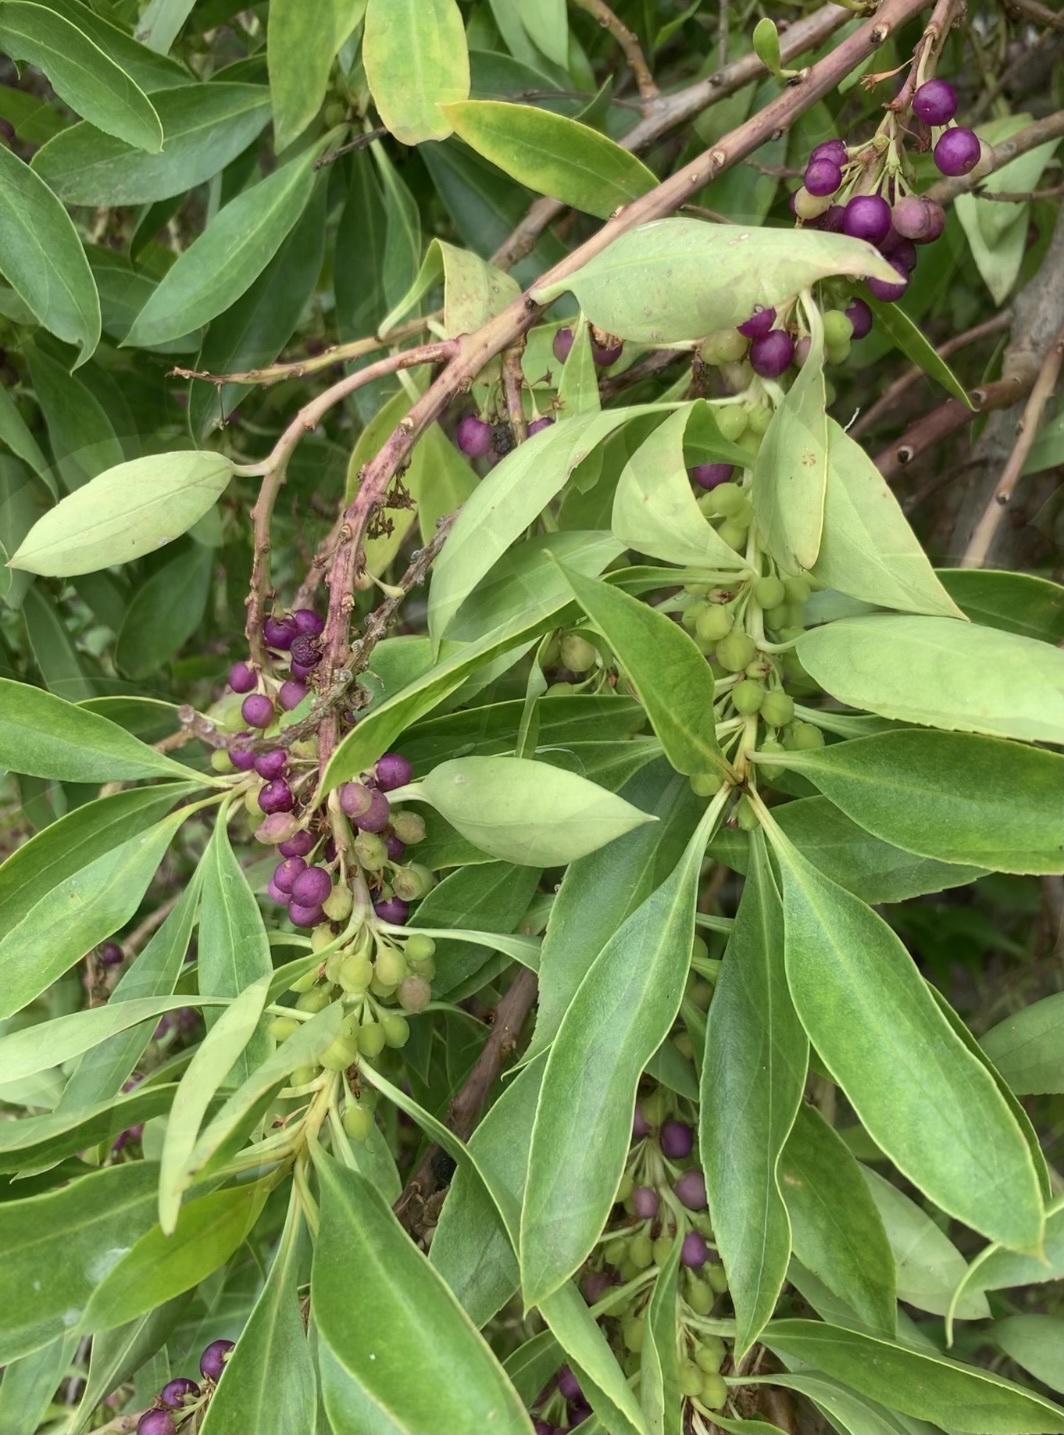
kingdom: Plantae
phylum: Tracheophyta
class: Magnoliopsida
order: Lamiales
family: Scrophulariaceae
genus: Myoporum
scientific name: Myoporum insulare
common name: Common boobialla
